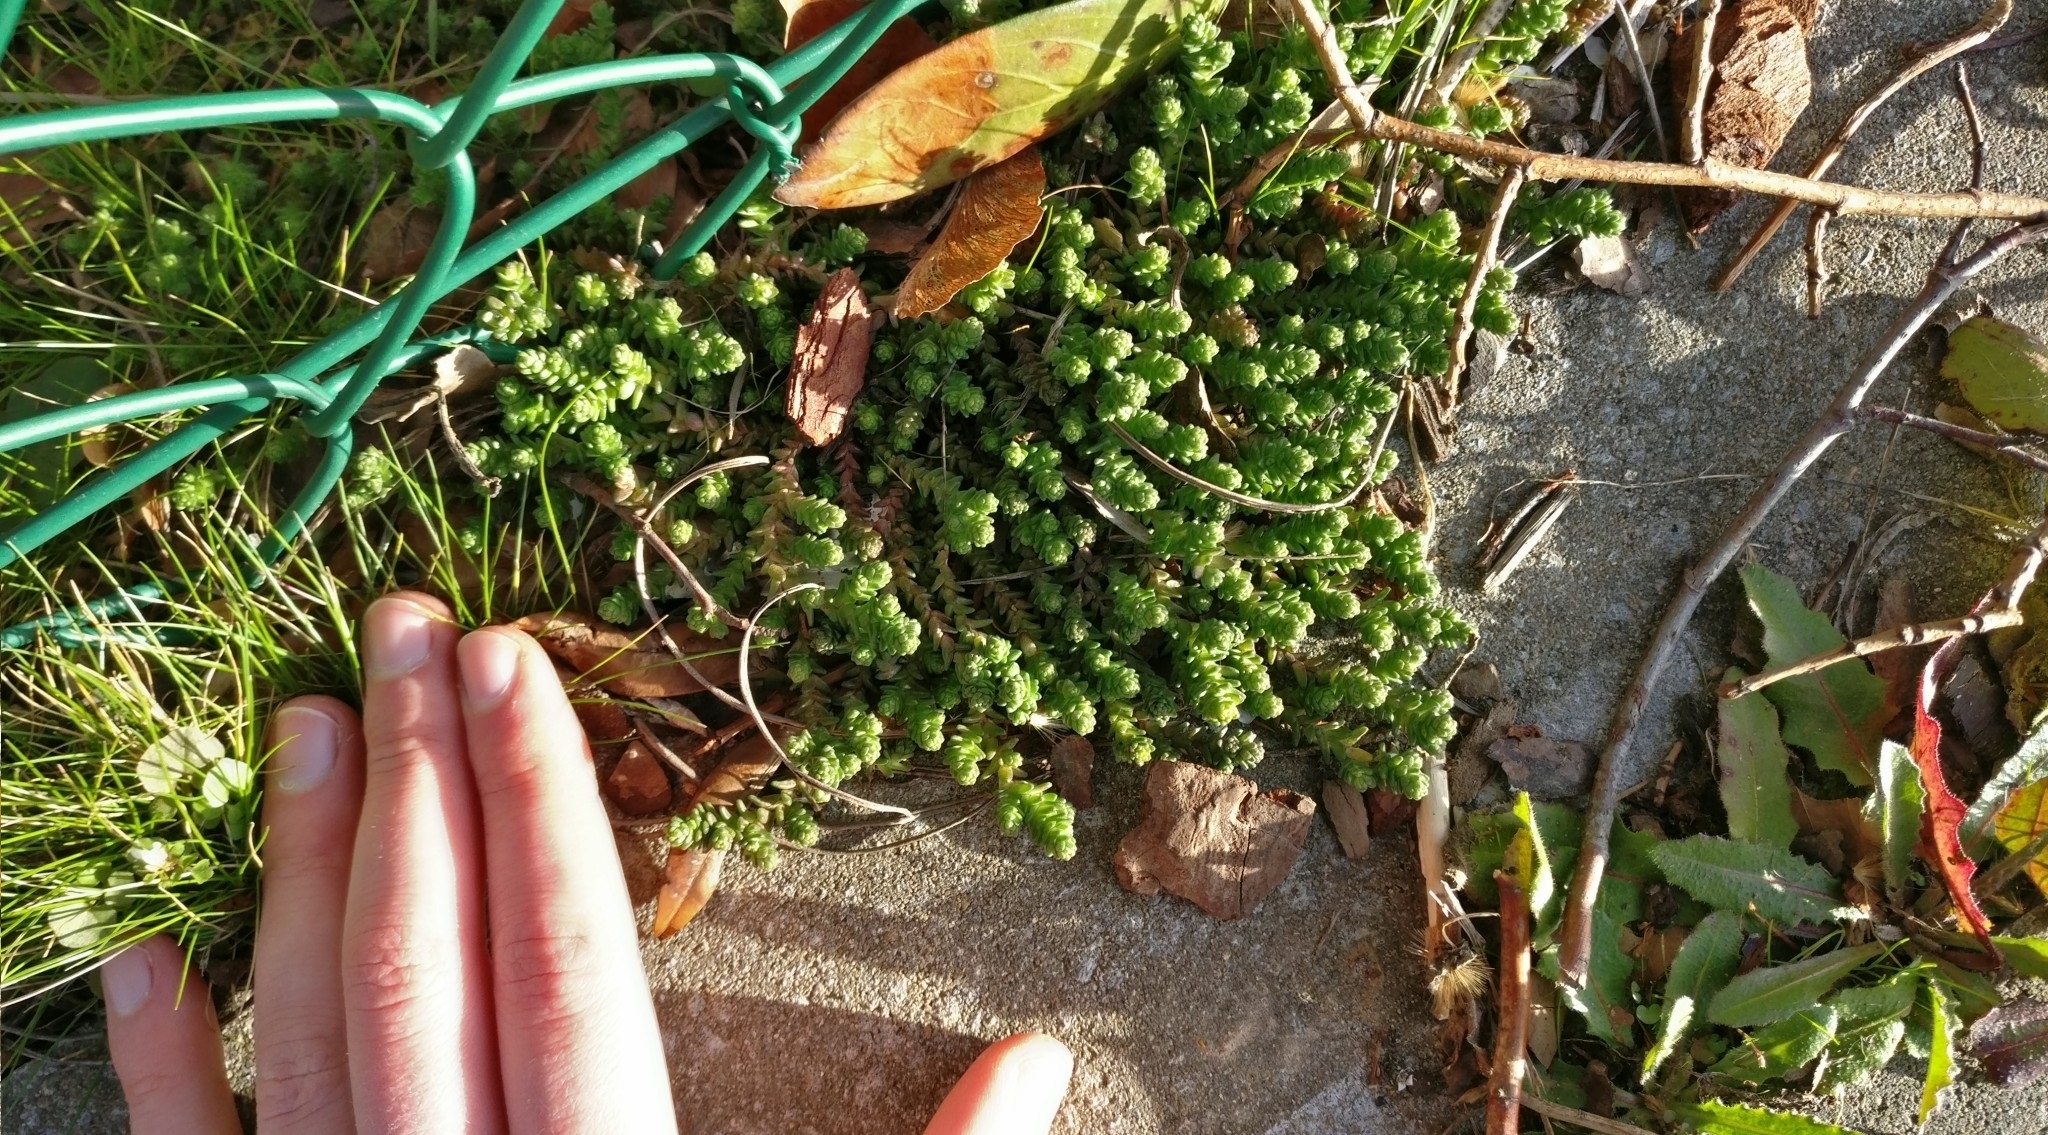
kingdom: Plantae
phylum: Tracheophyta
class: Magnoliopsida
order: Saxifragales
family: Crassulaceae
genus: Sedum
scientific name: Sedum acre
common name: Biting stonecrop
